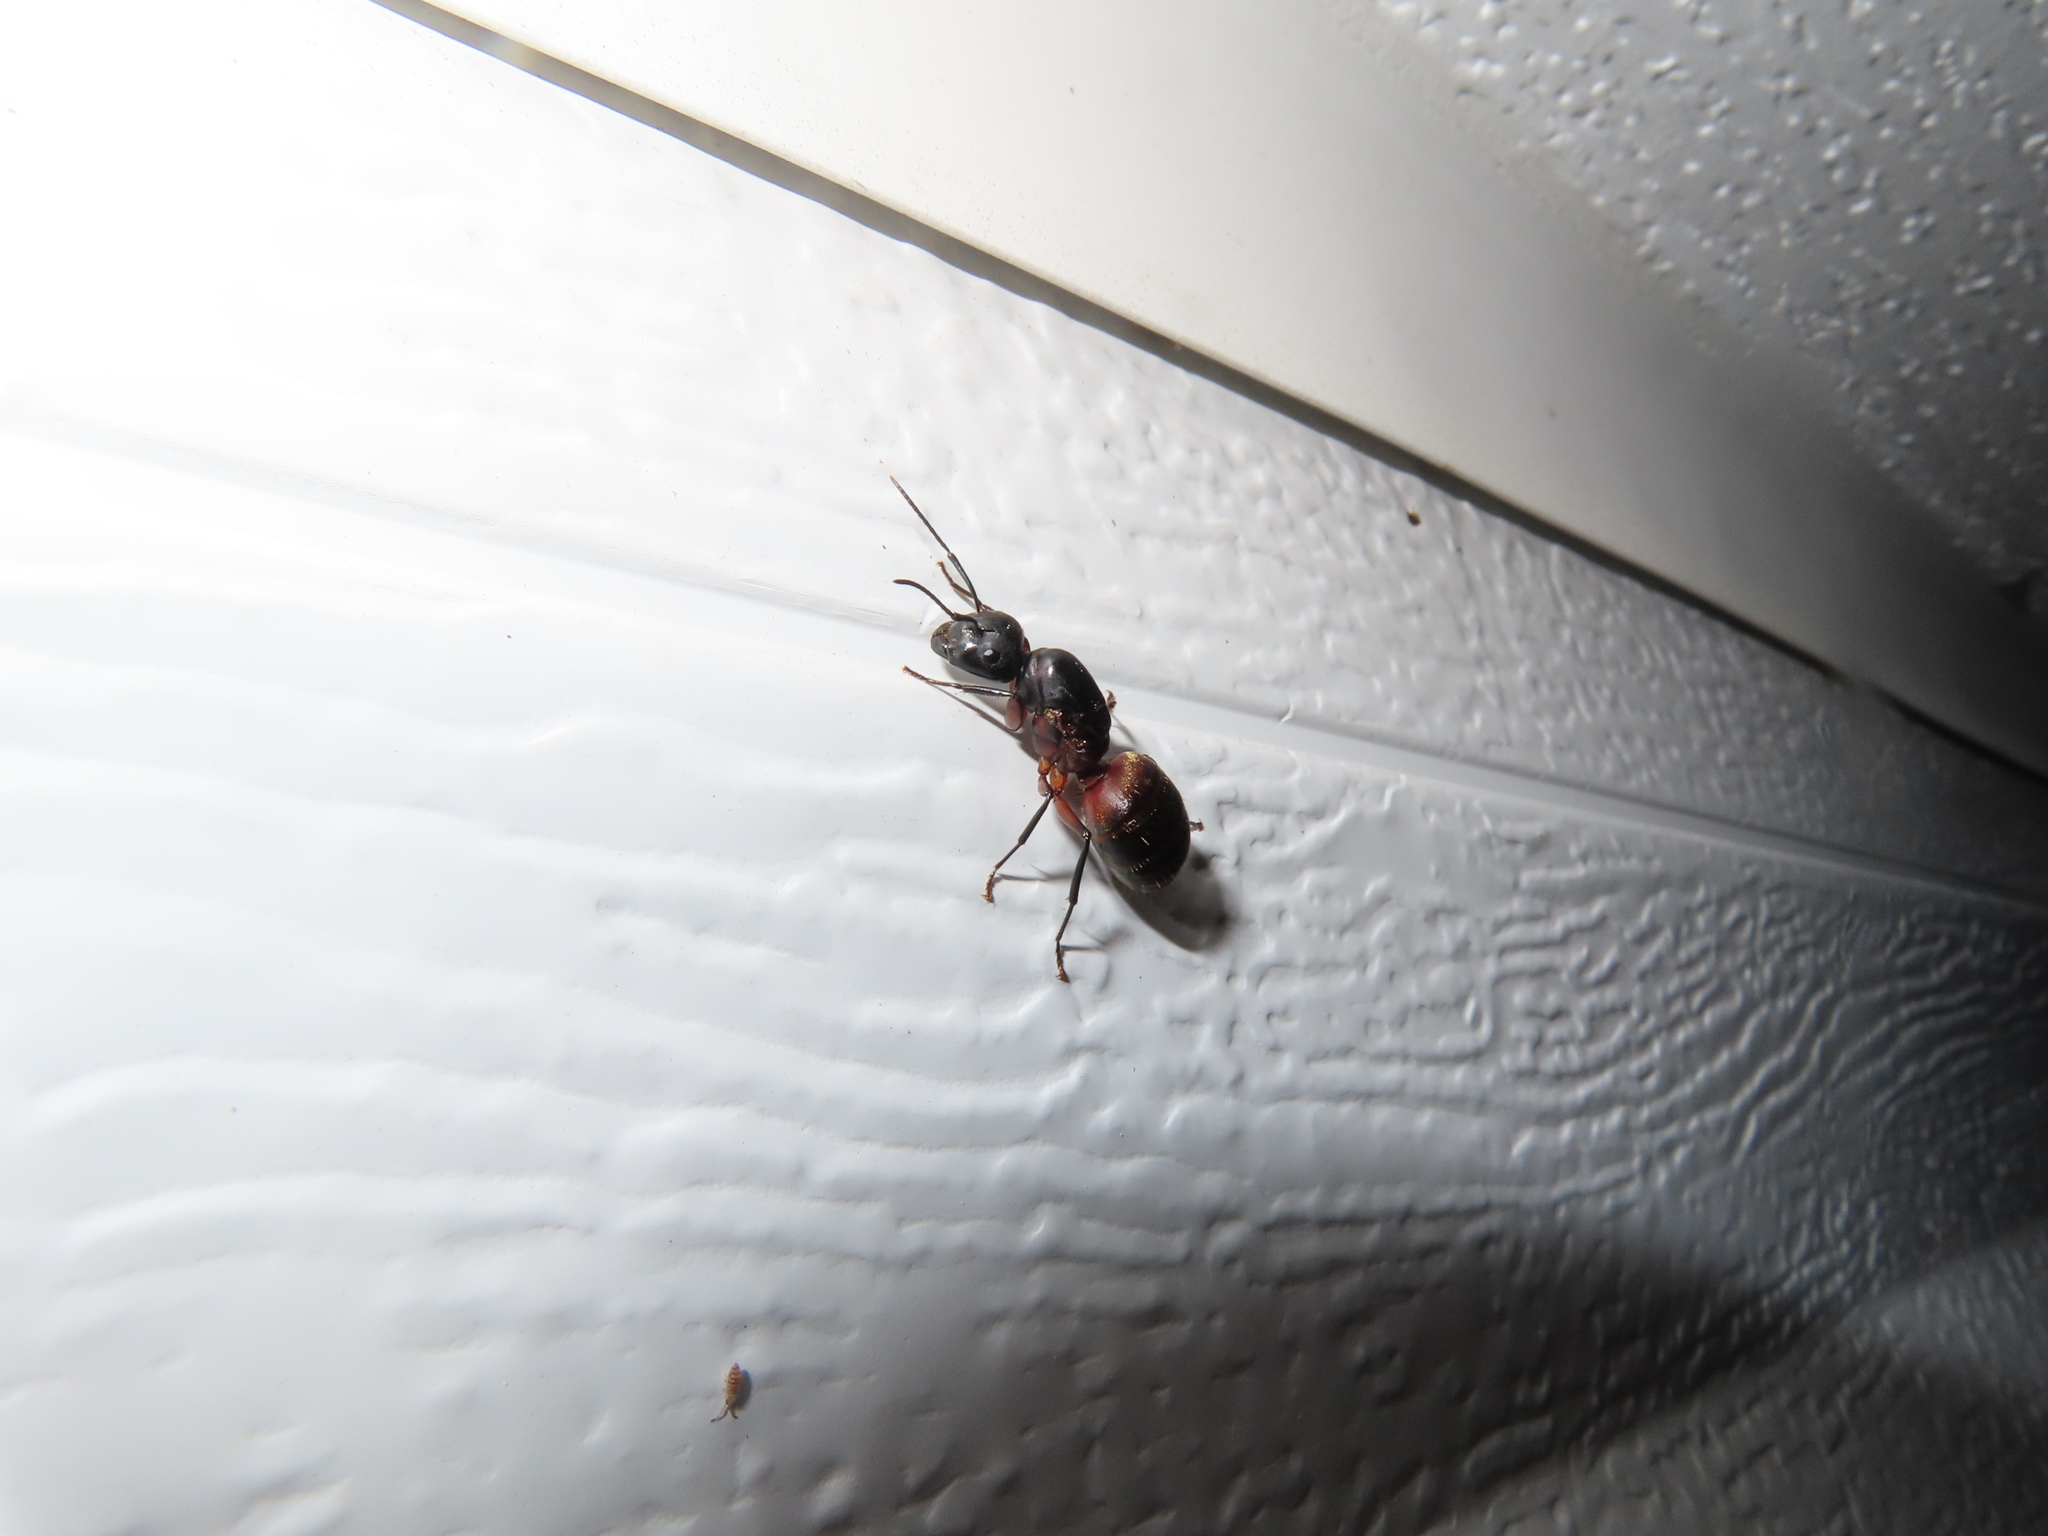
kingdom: Animalia
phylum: Arthropoda
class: Insecta
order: Hymenoptera
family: Formicidae
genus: Camponotus
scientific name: Camponotus chromaiodes
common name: Red carpenter ant
